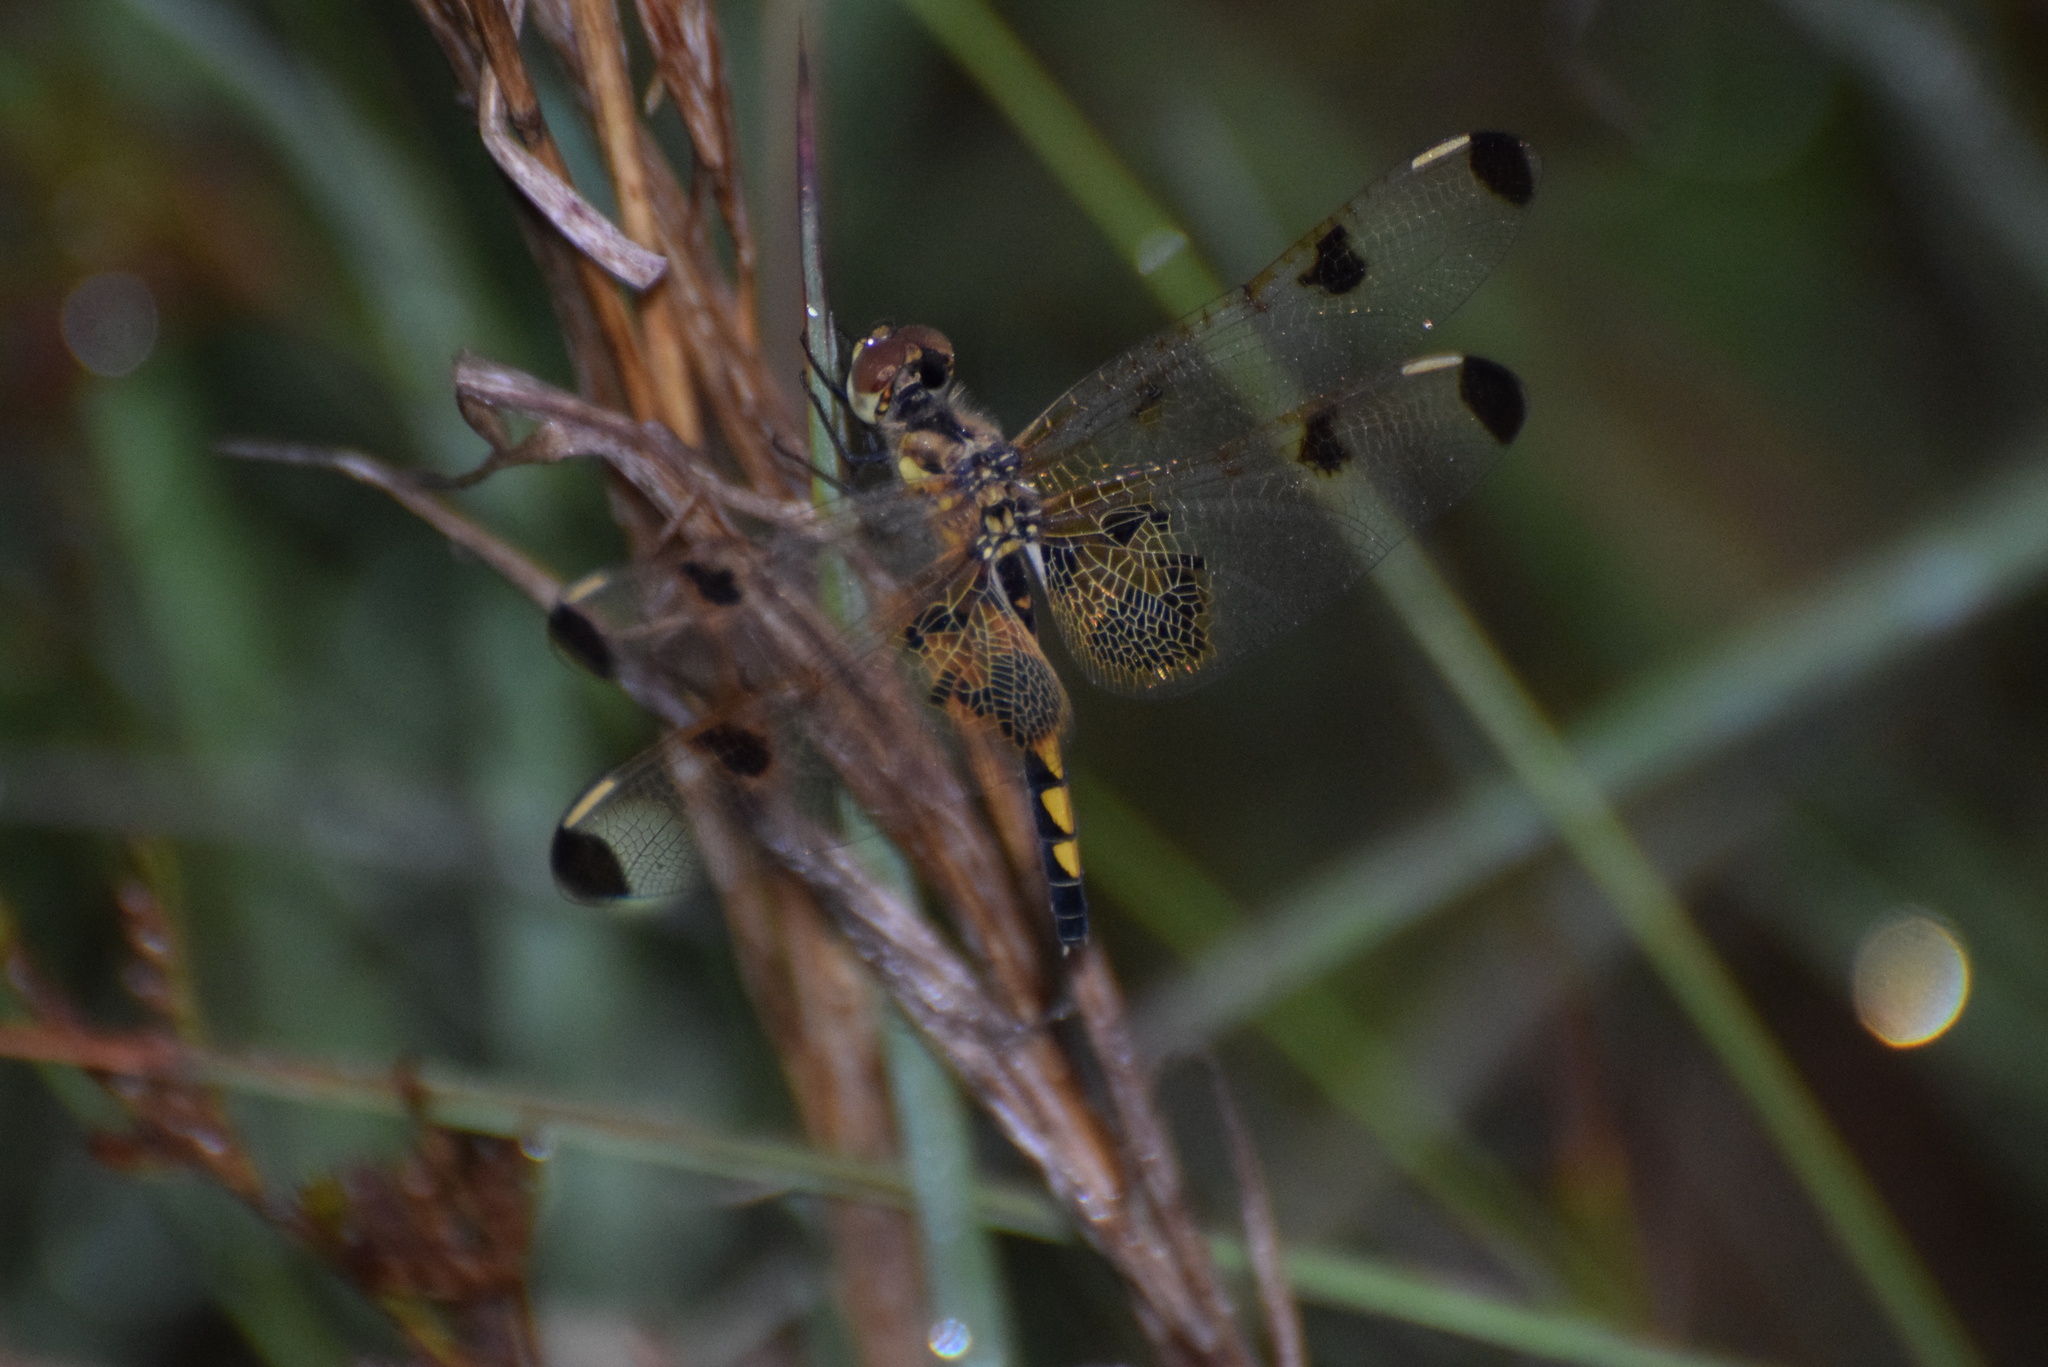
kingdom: Animalia
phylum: Arthropoda
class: Insecta
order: Odonata
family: Libellulidae
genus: Celithemis
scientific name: Celithemis elisa
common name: Calico pennant
